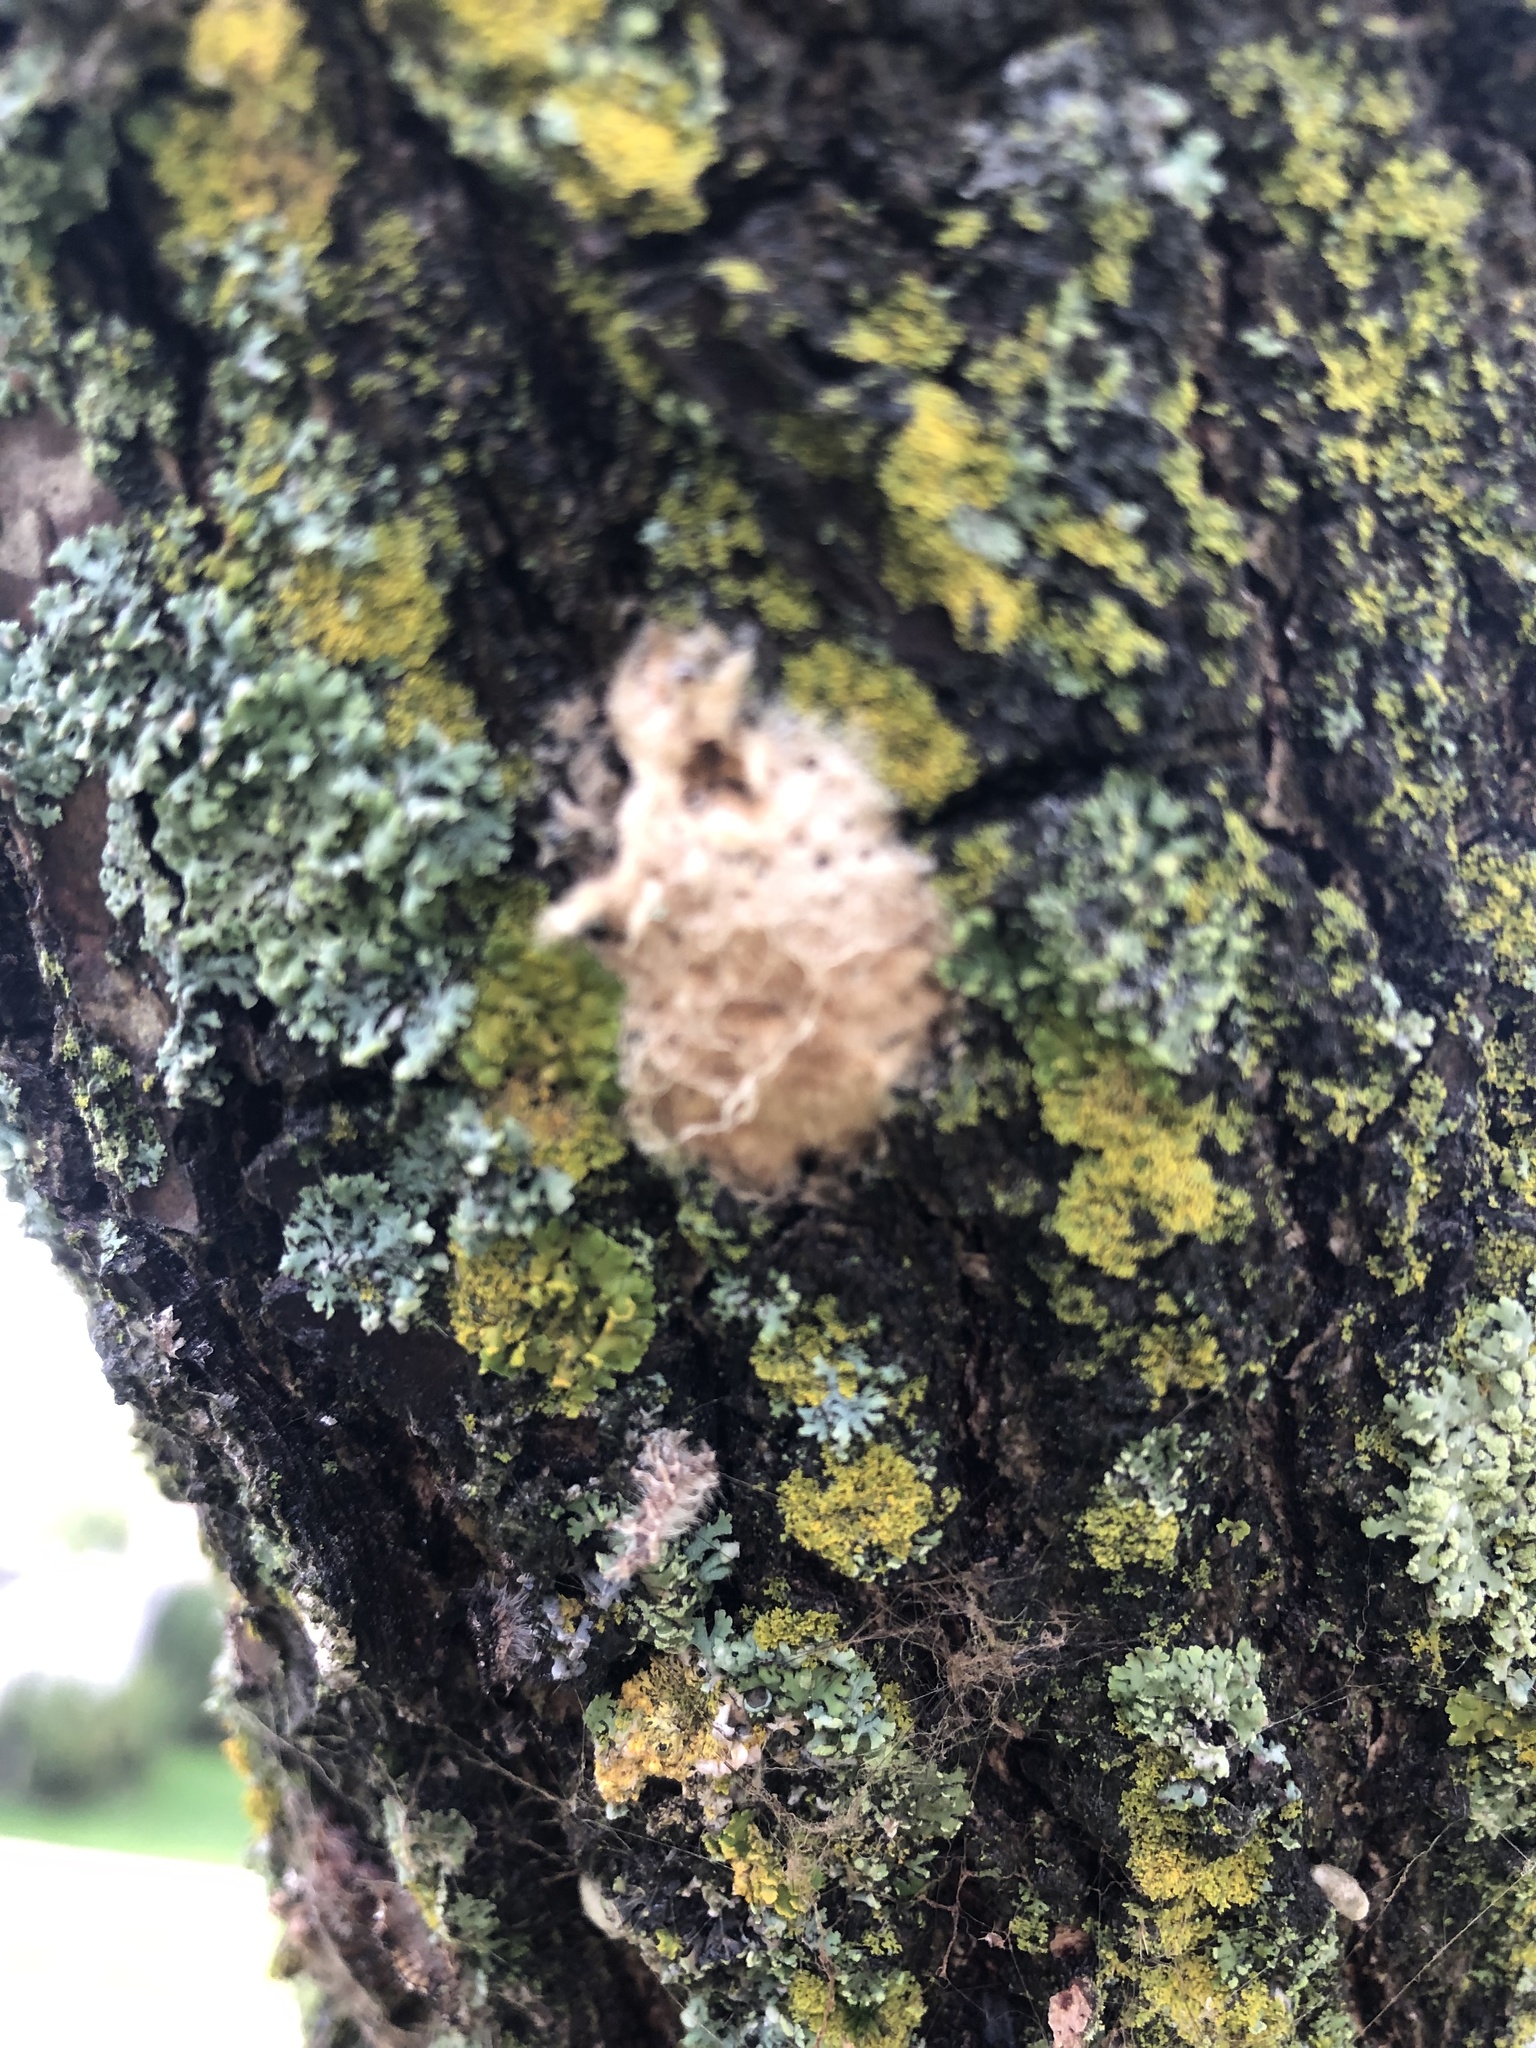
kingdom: Animalia
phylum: Arthropoda
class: Insecta
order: Lepidoptera
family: Erebidae
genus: Lymantria
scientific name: Lymantria dispar
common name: Gypsy moth
